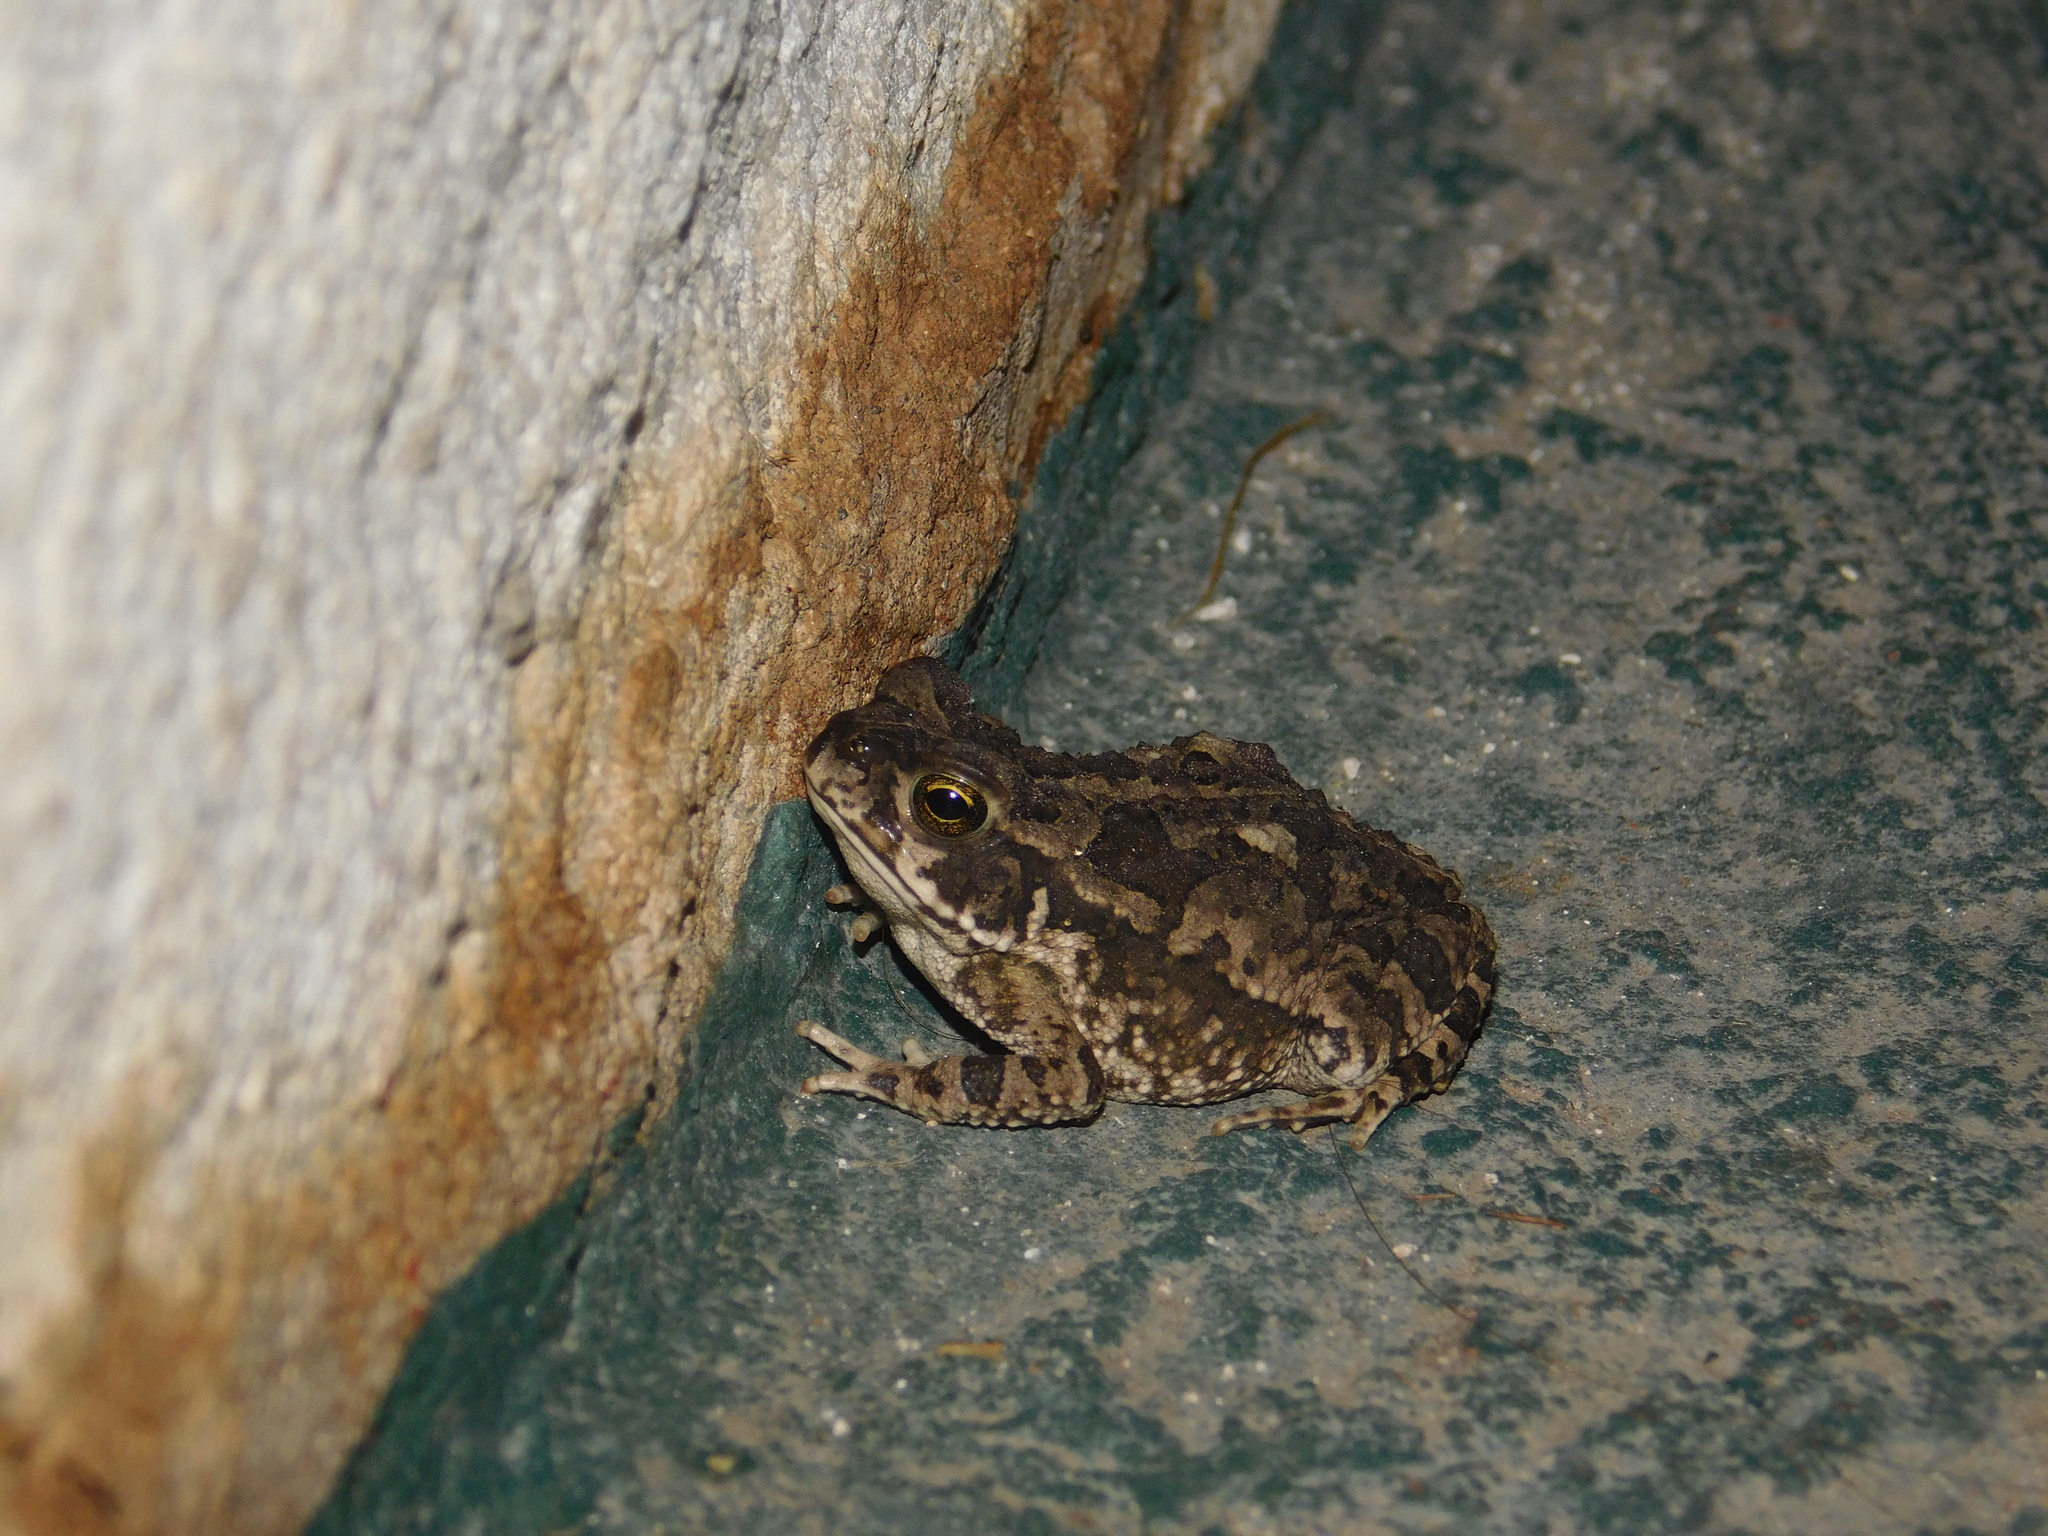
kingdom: Animalia
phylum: Chordata
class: Amphibia
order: Anura
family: Bufonidae
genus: Rhinella
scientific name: Rhinella arenarum
